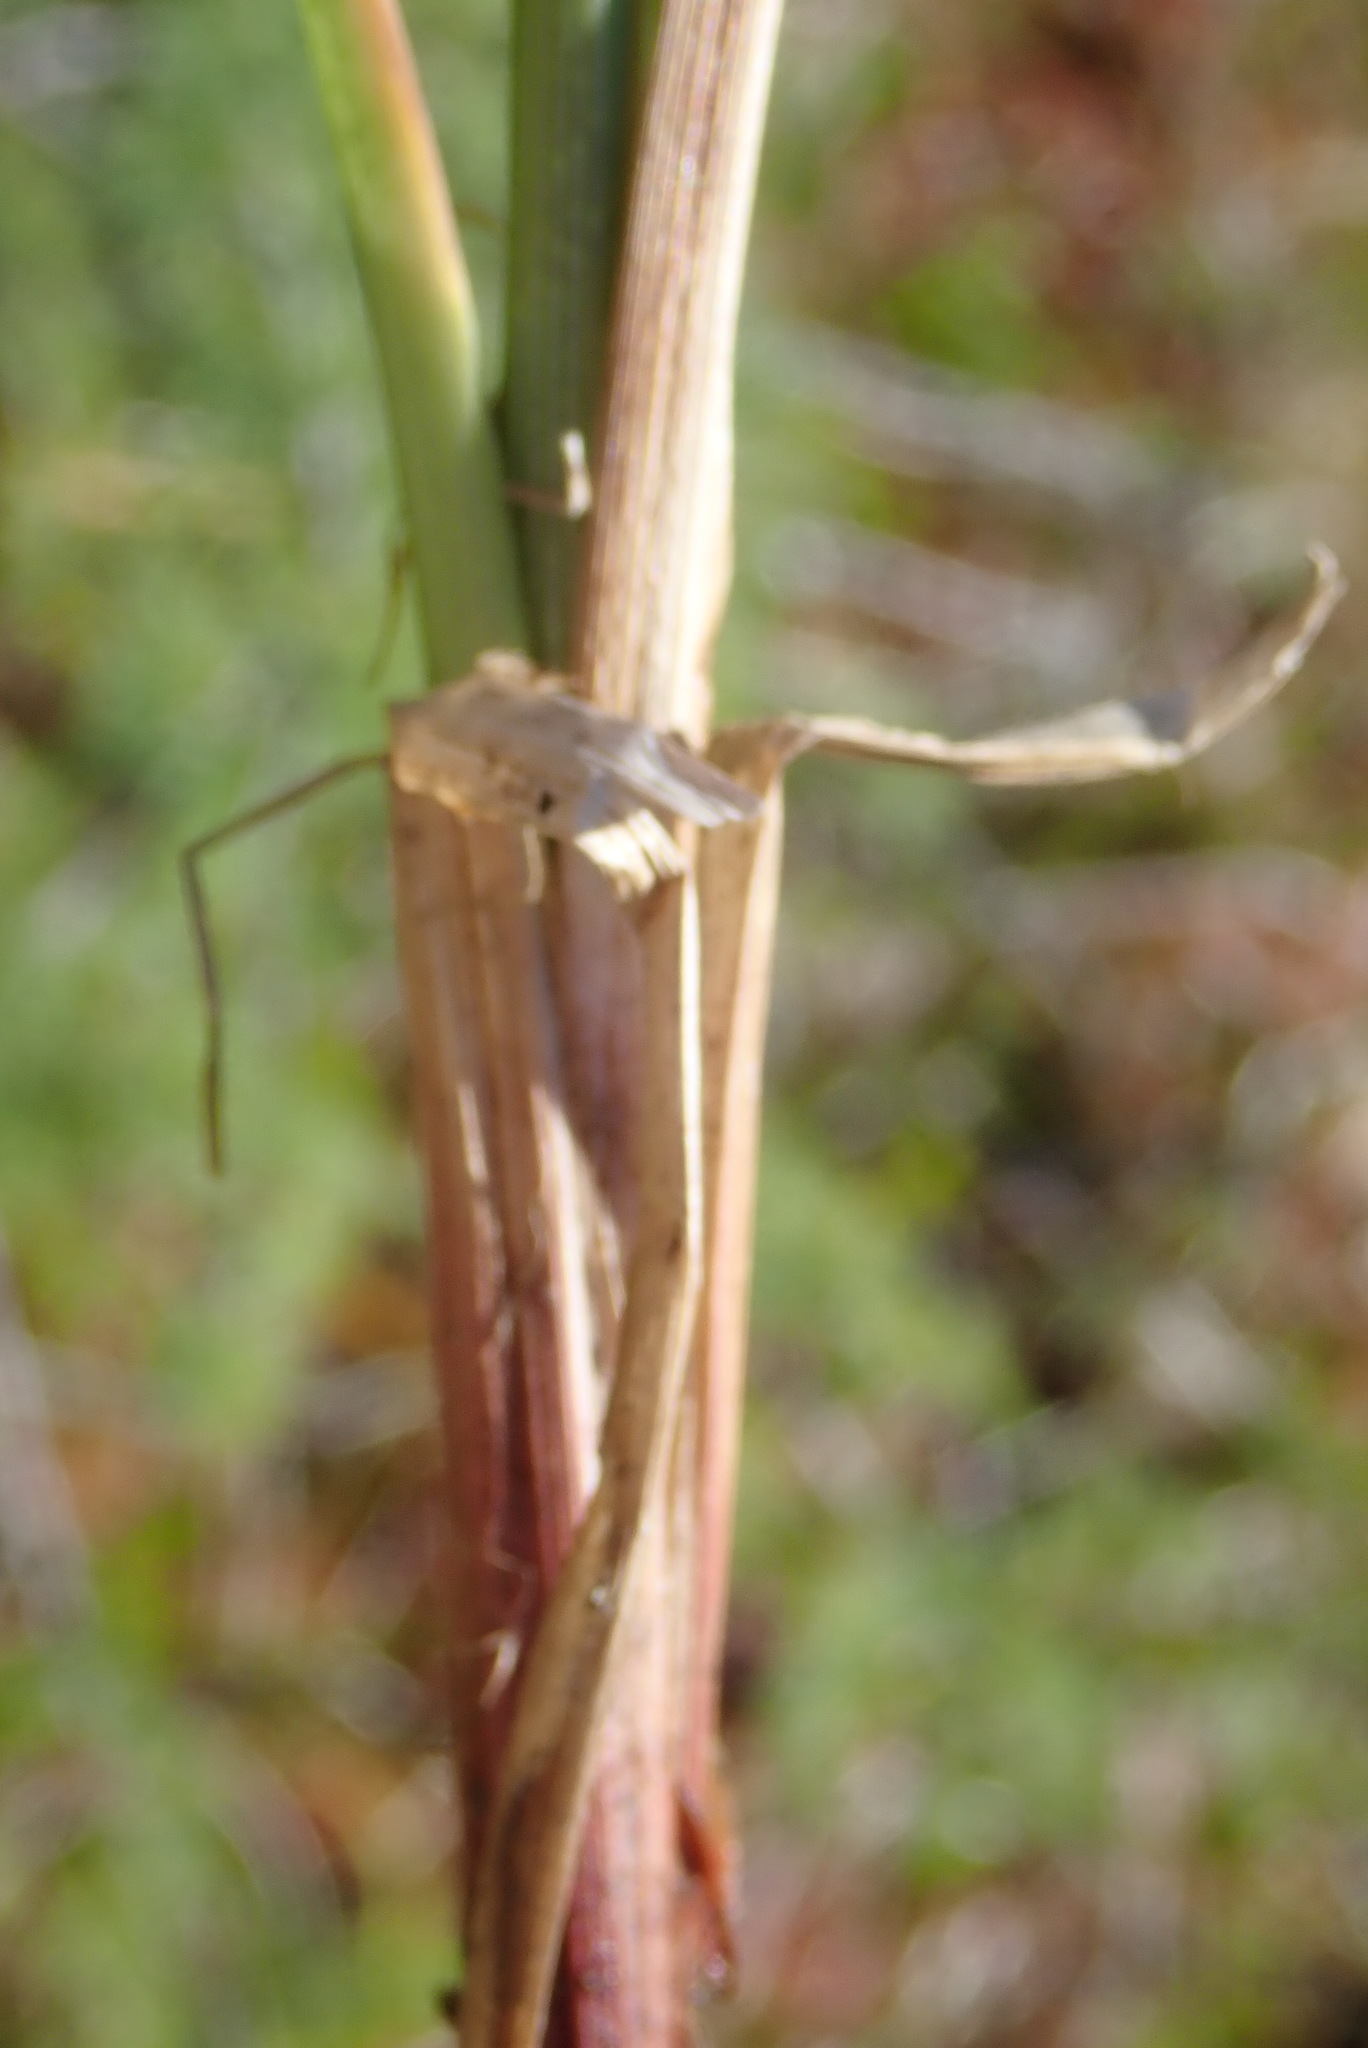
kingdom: Plantae
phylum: Tracheophyta
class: Liliopsida
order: Poales
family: Cyperaceae
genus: Carex
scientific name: Carex rostrata
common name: Bottle sedge
